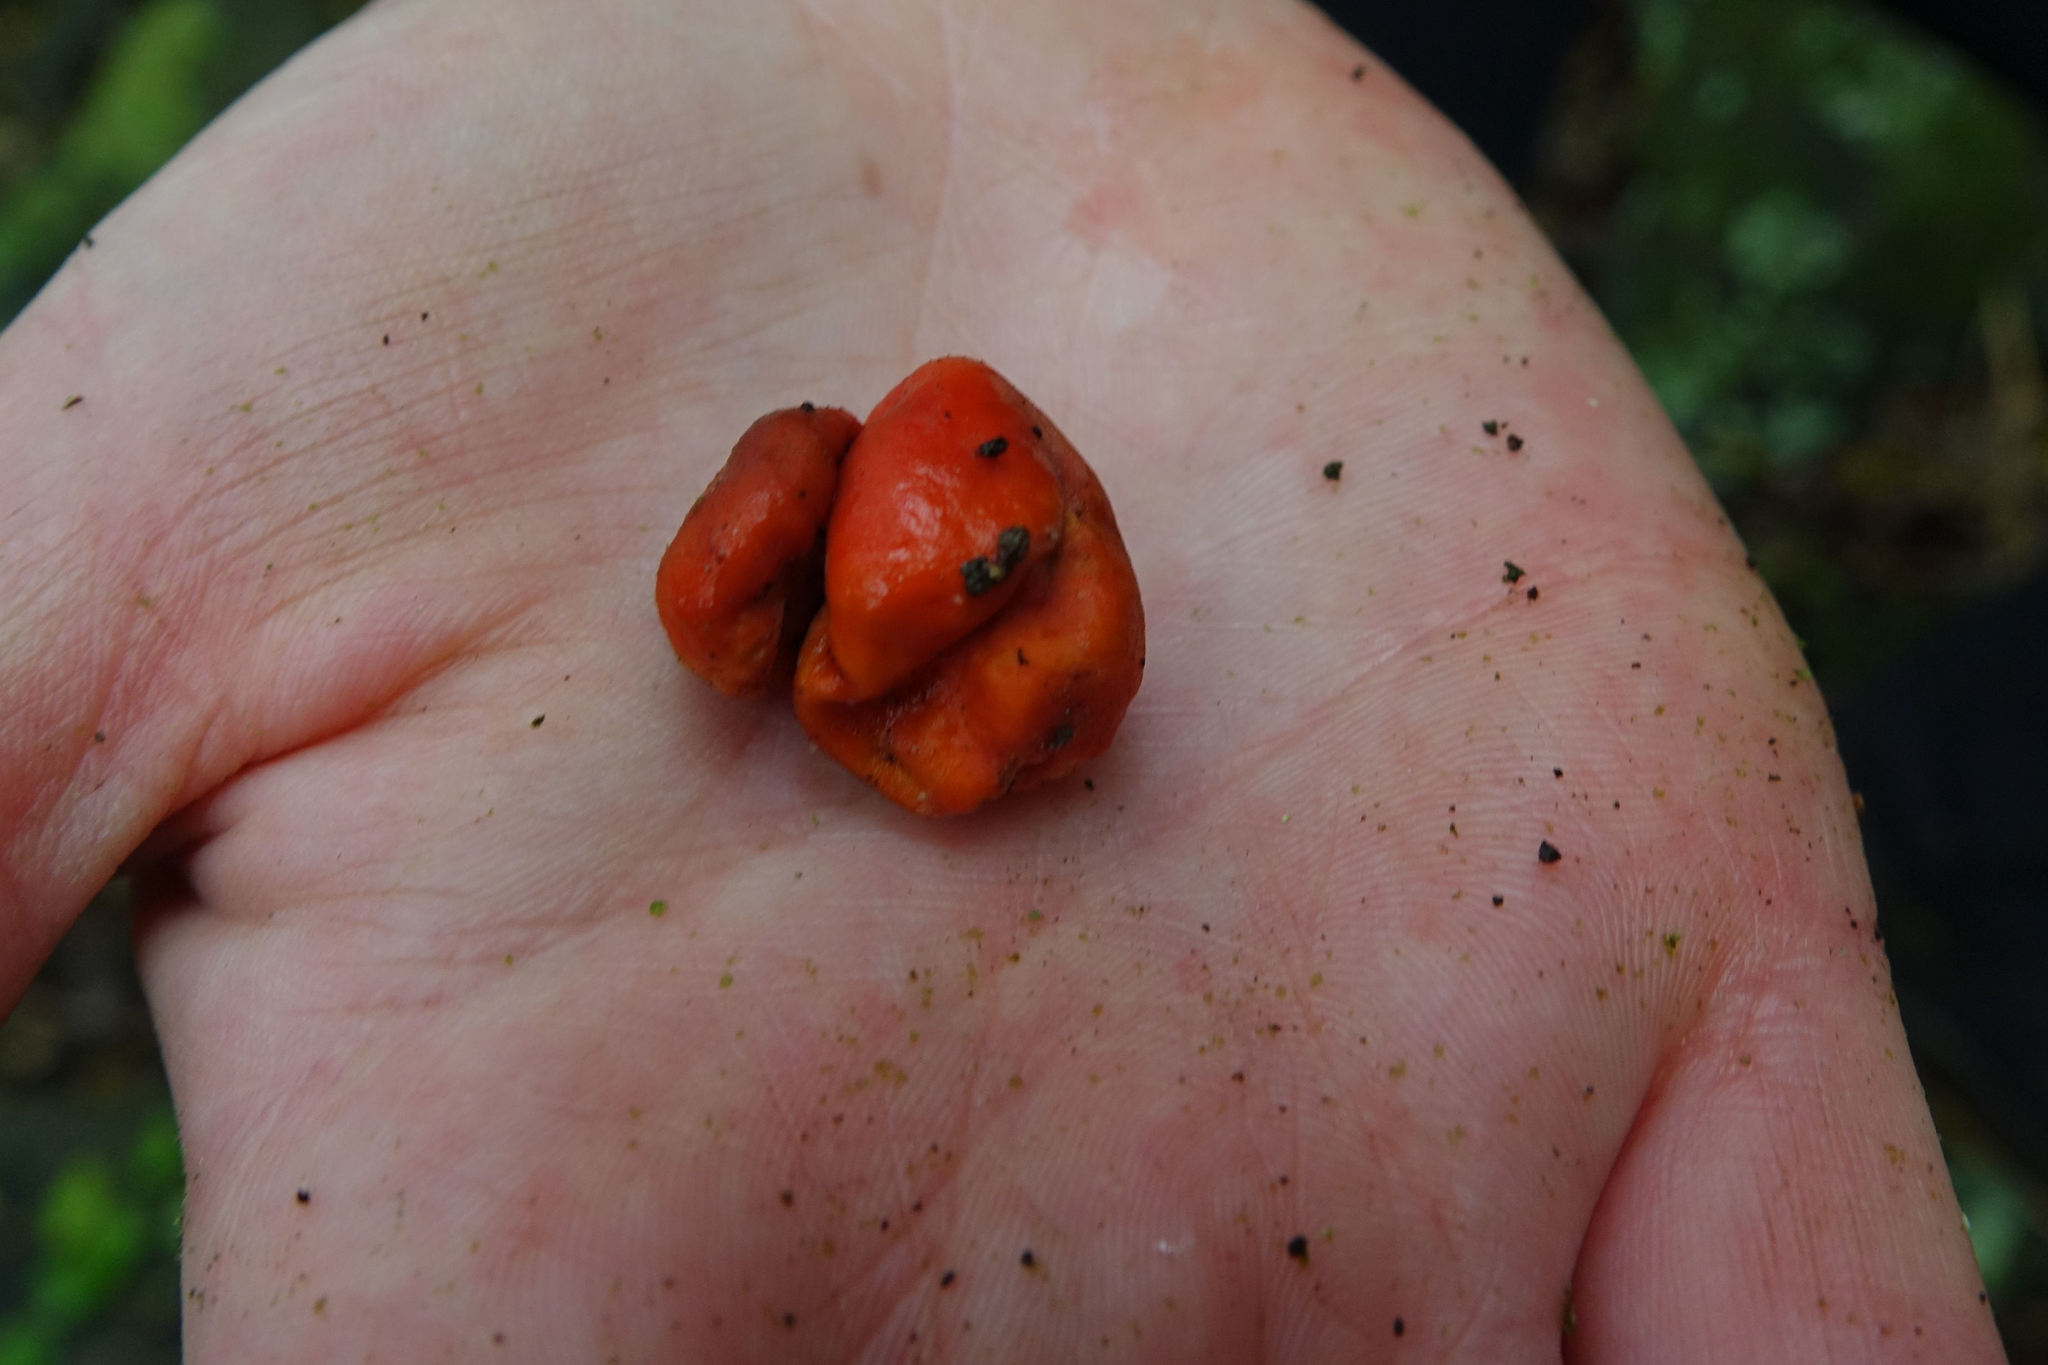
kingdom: Fungi
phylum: Ascomycota
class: Pezizomycetes
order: Pezizales
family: Pyronemataceae
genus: Paurocotylis
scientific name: Paurocotylis pila
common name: Scarlet berry truffle
